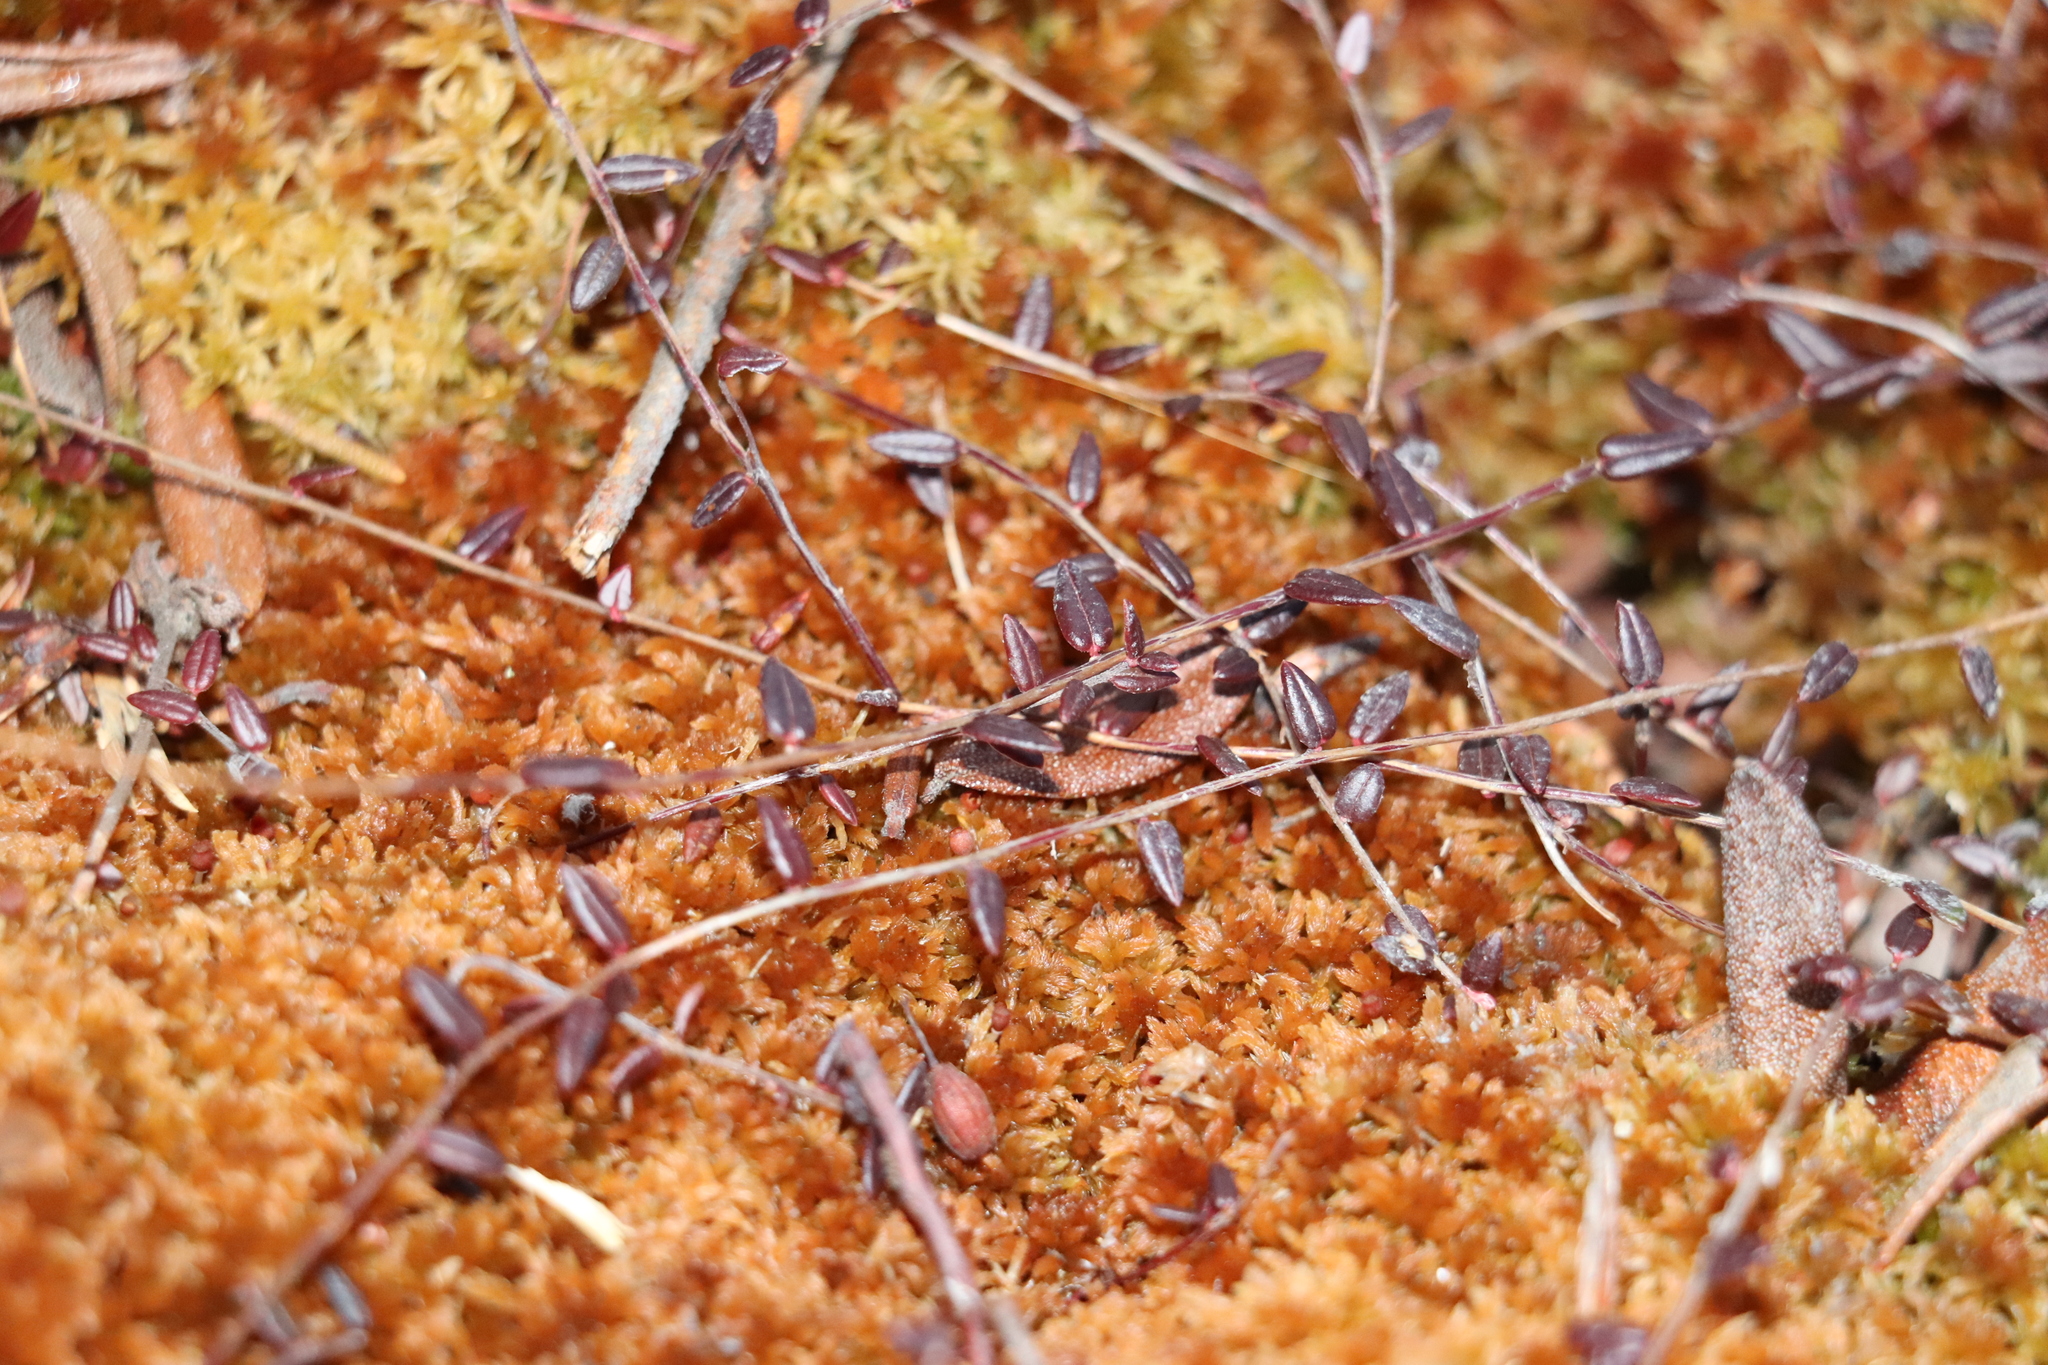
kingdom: Plantae
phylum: Tracheophyta
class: Magnoliopsida
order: Ericales
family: Ericaceae
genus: Vaccinium
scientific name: Vaccinium microcarpum
